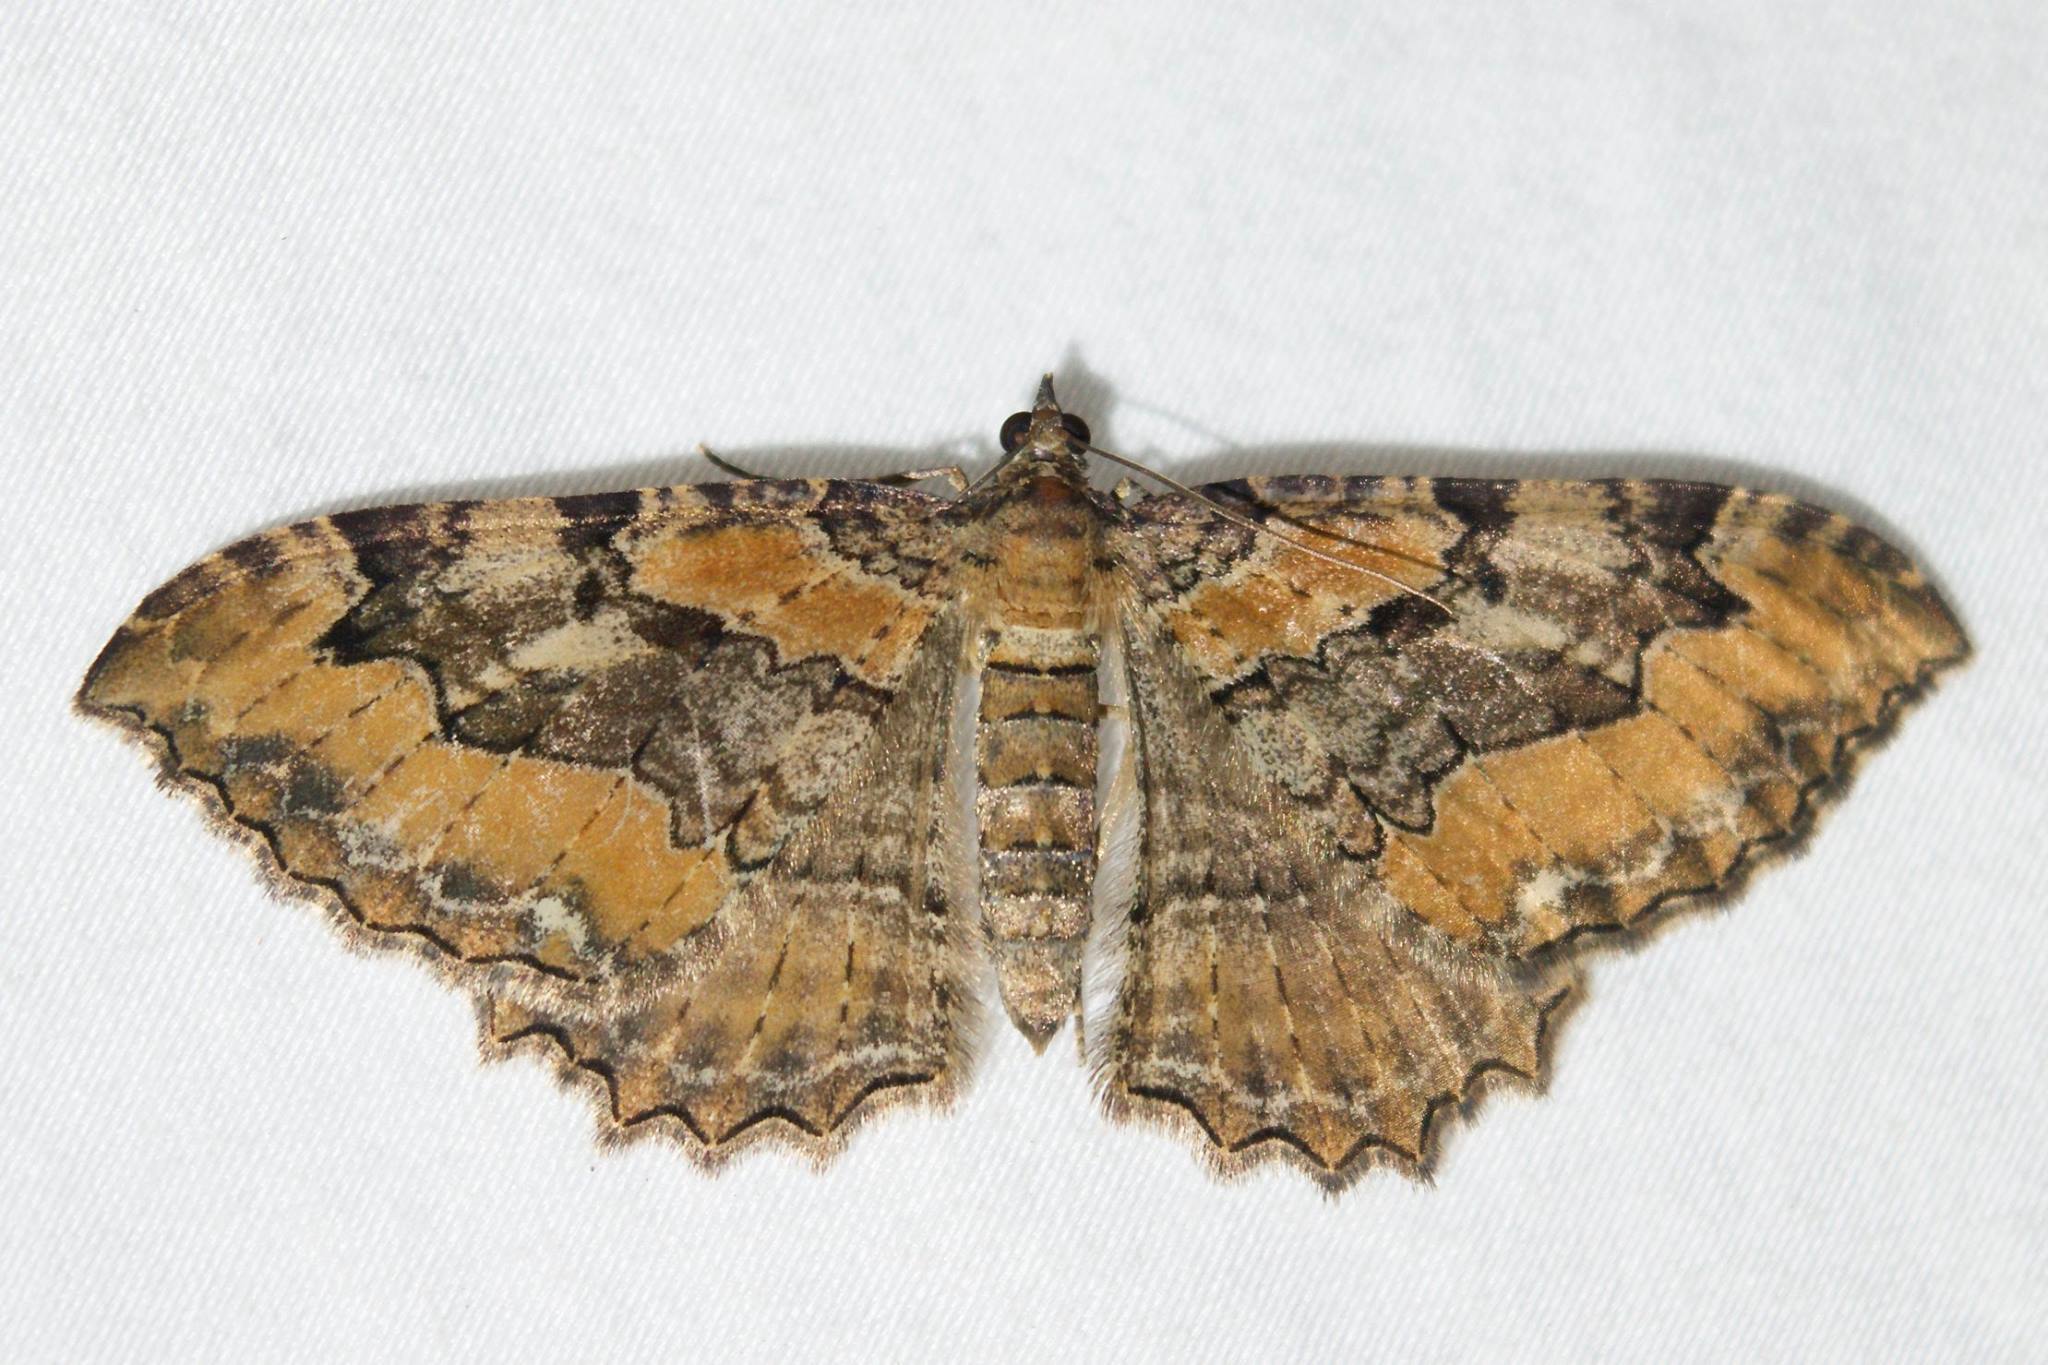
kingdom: Animalia
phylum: Arthropoda
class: Insecta
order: Lepidoptera
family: Geometridae
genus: Rheumaptera
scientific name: Rheumaptera
